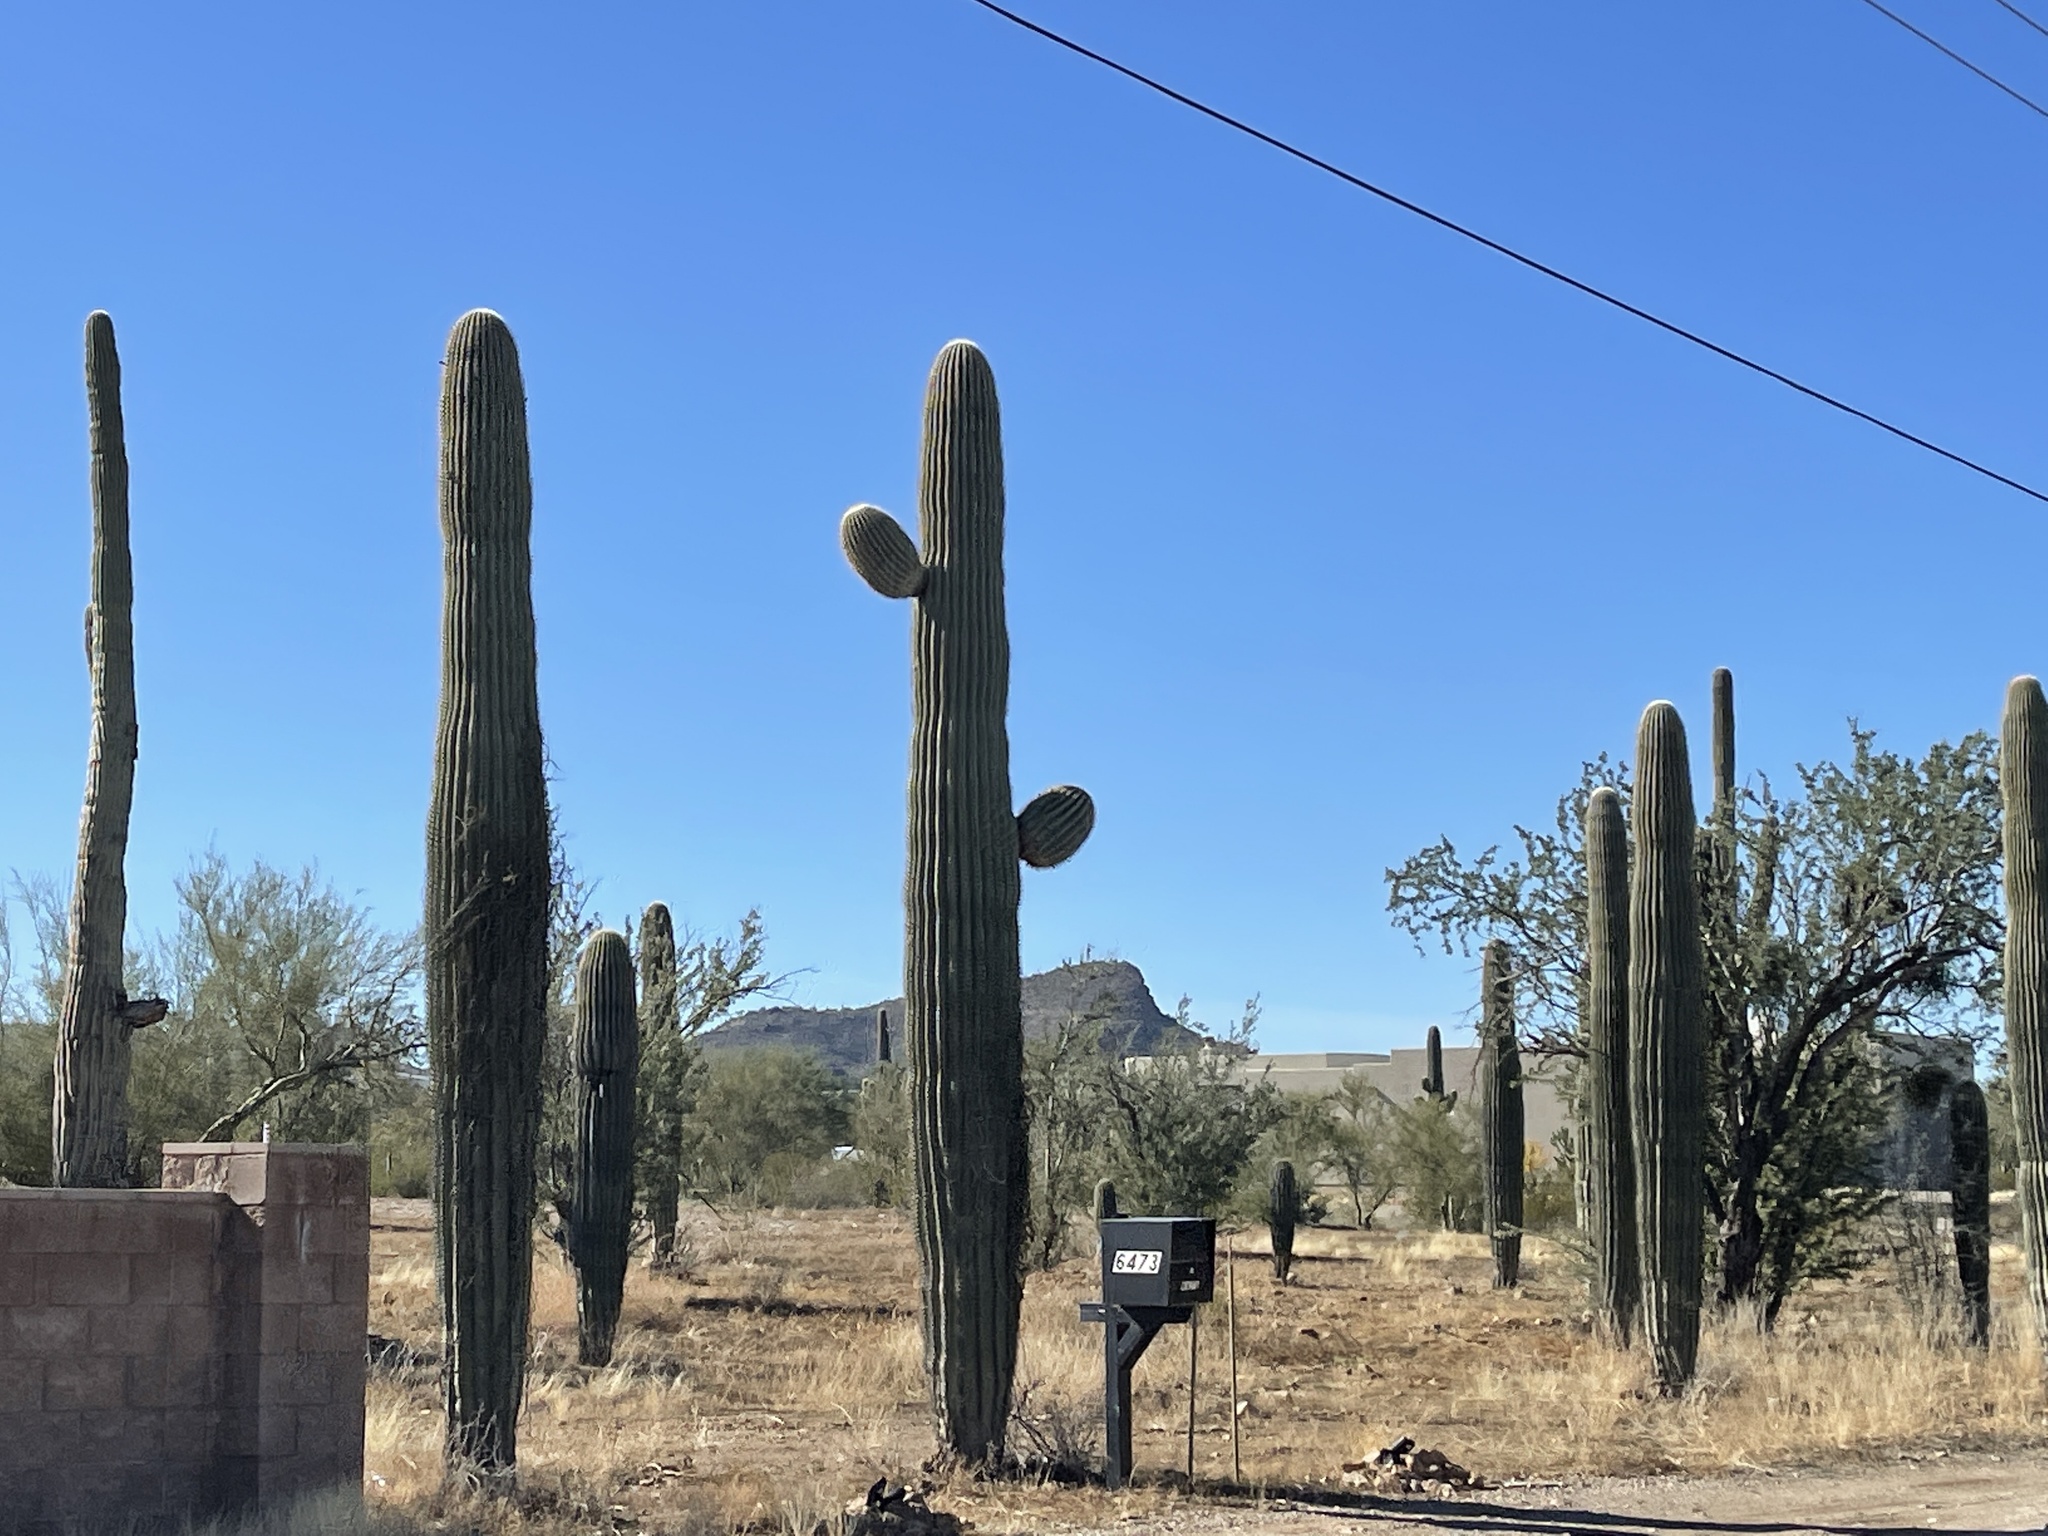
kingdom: Plantae
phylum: Tracheophyta
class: Magnoliopsida
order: Caryophyllales
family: Cactaceae
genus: Carnegiea
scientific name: Carnegiea gigantea
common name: Saguaro
